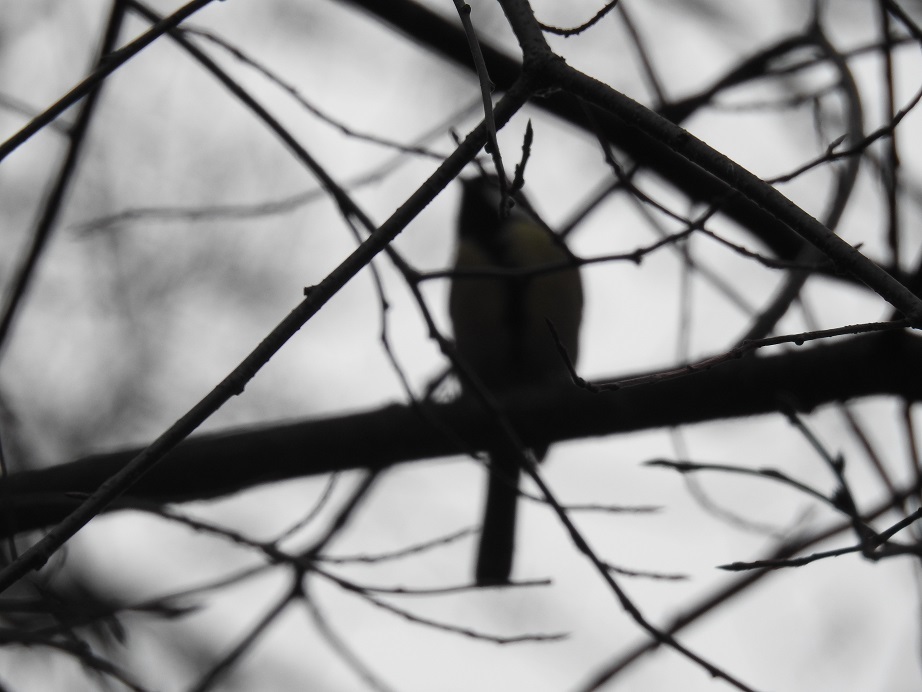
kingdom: Animalia
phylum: Chordata
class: Aves
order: Passeriformes
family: Paridae
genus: Parus
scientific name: Parus major
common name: Great tit
